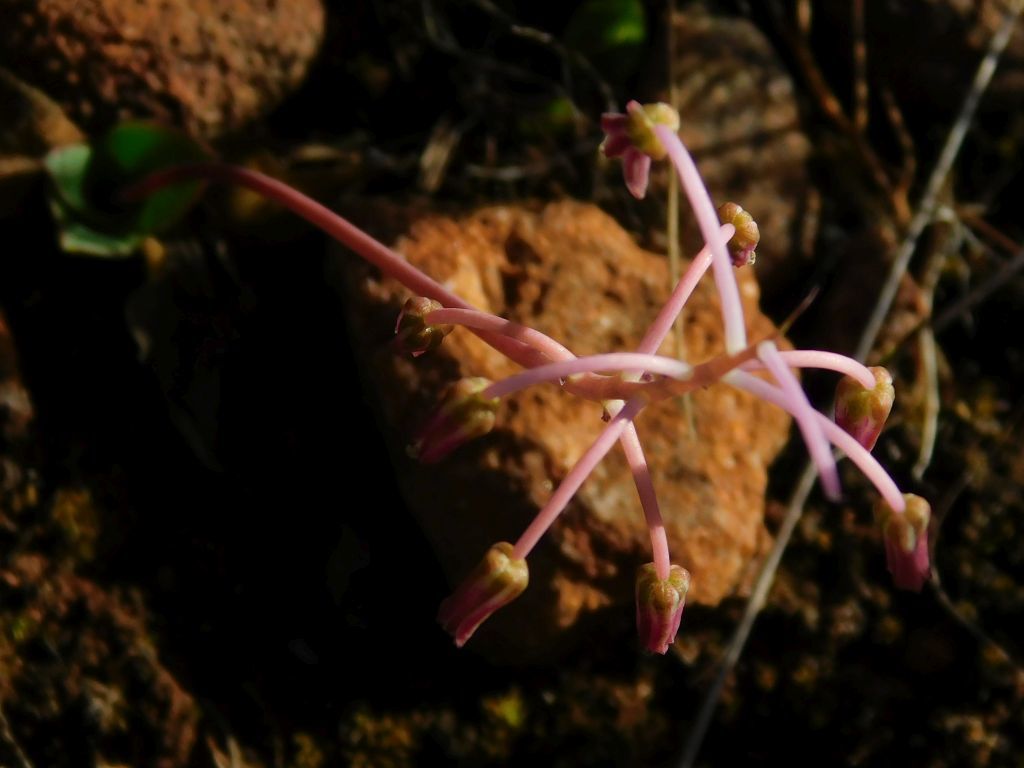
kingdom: Plantae
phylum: Tracheophyta
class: Liliopsida
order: Asparagales
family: Asparagaceae
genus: Ledebouria
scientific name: Ledebouria ovalifolia
